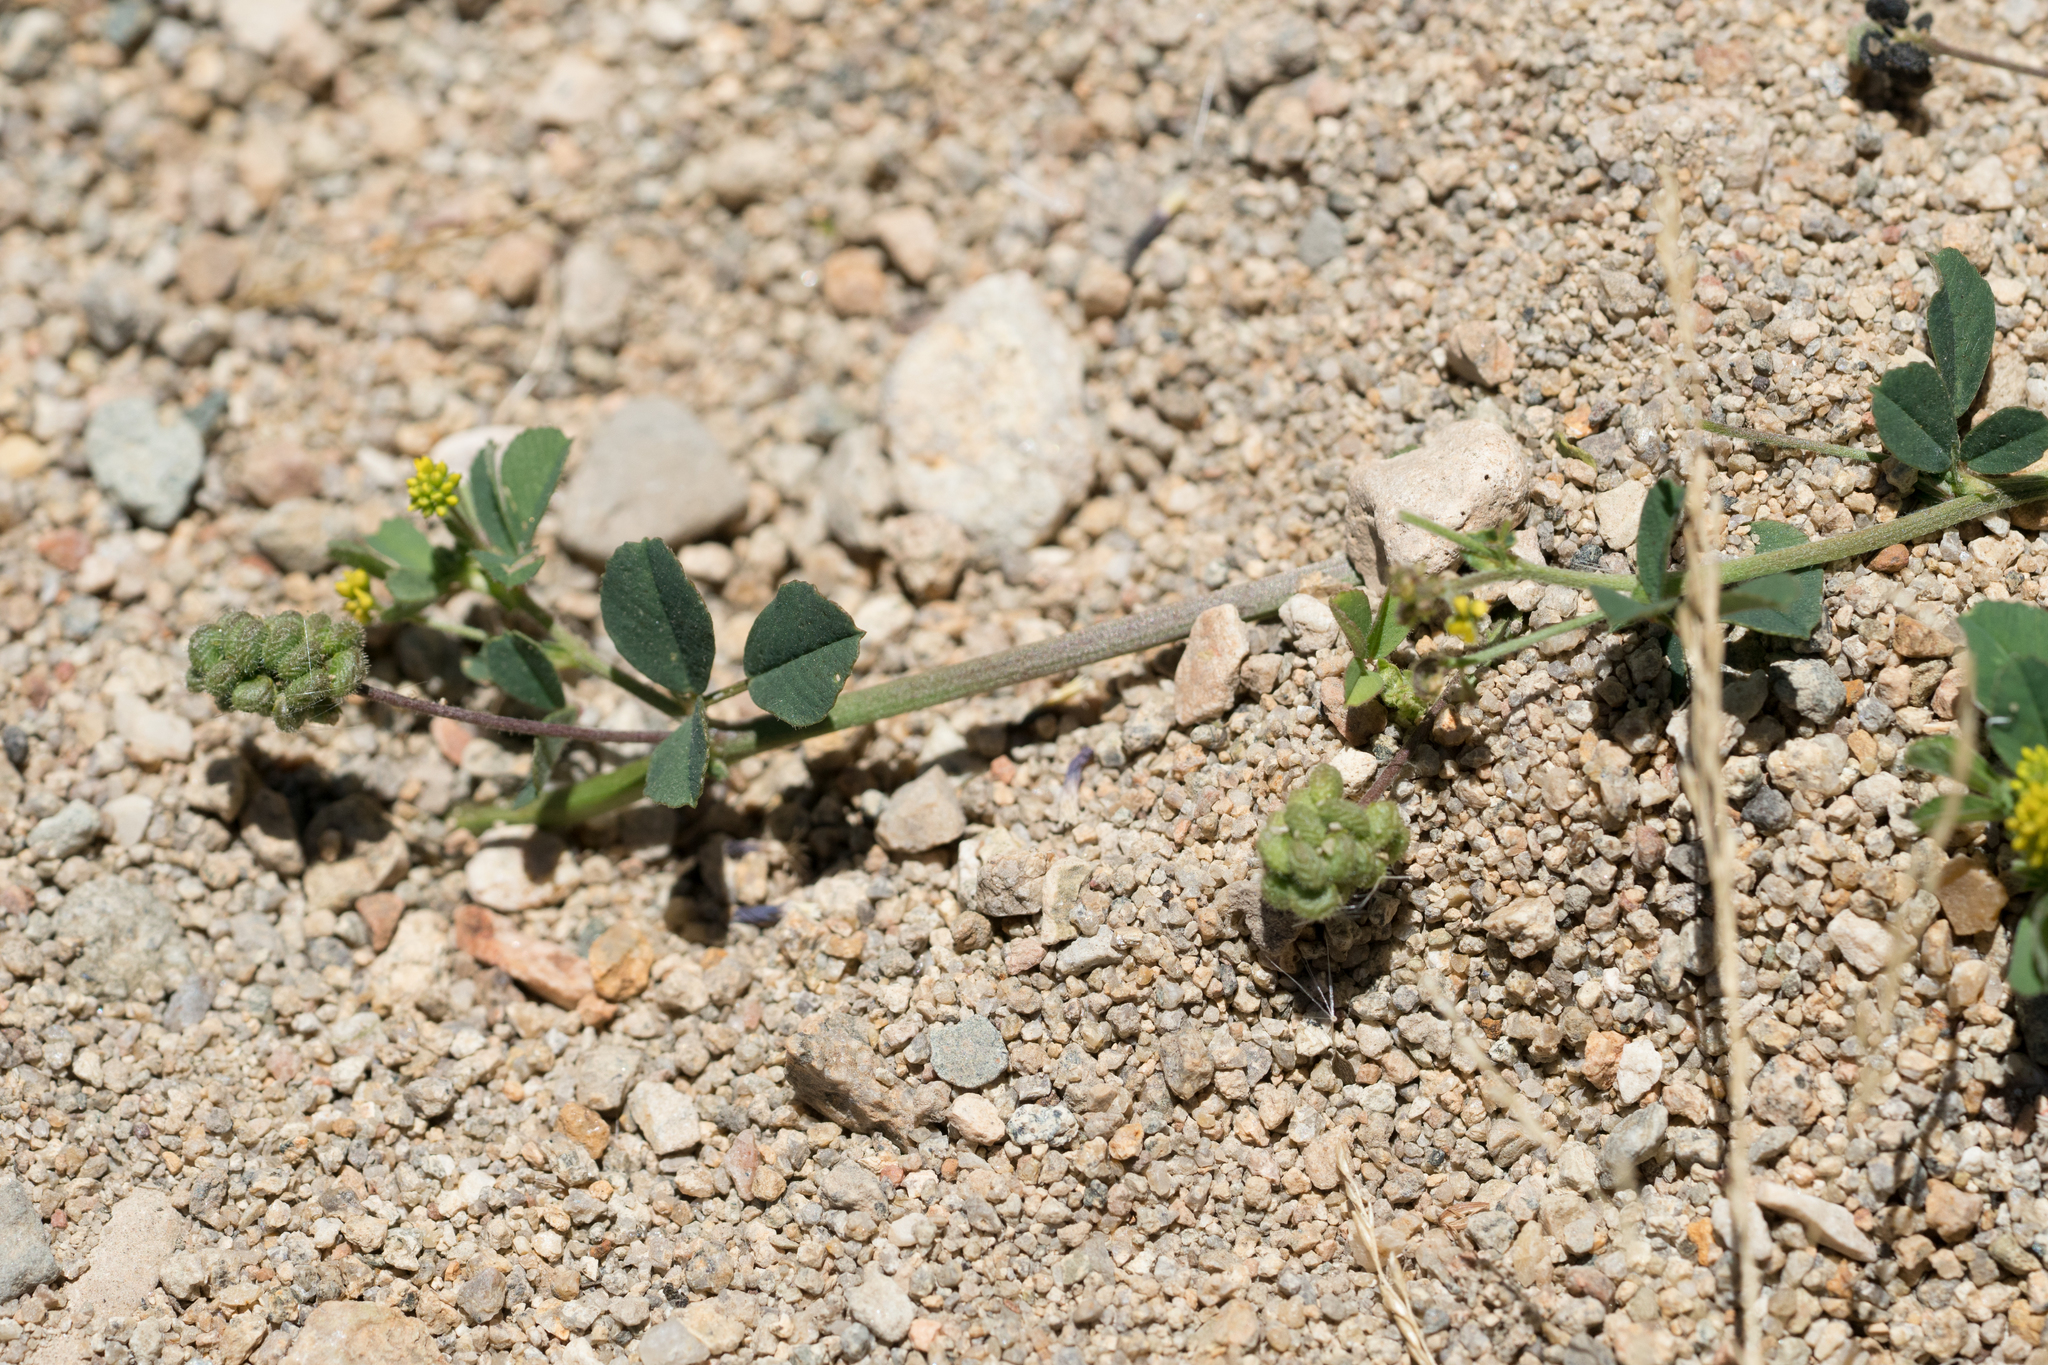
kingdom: Plantae
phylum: Tracheophyta
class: Magnoliopsida
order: Fabales
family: Fabaceae
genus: Medicago
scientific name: Medicago lupulina
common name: Black medick
